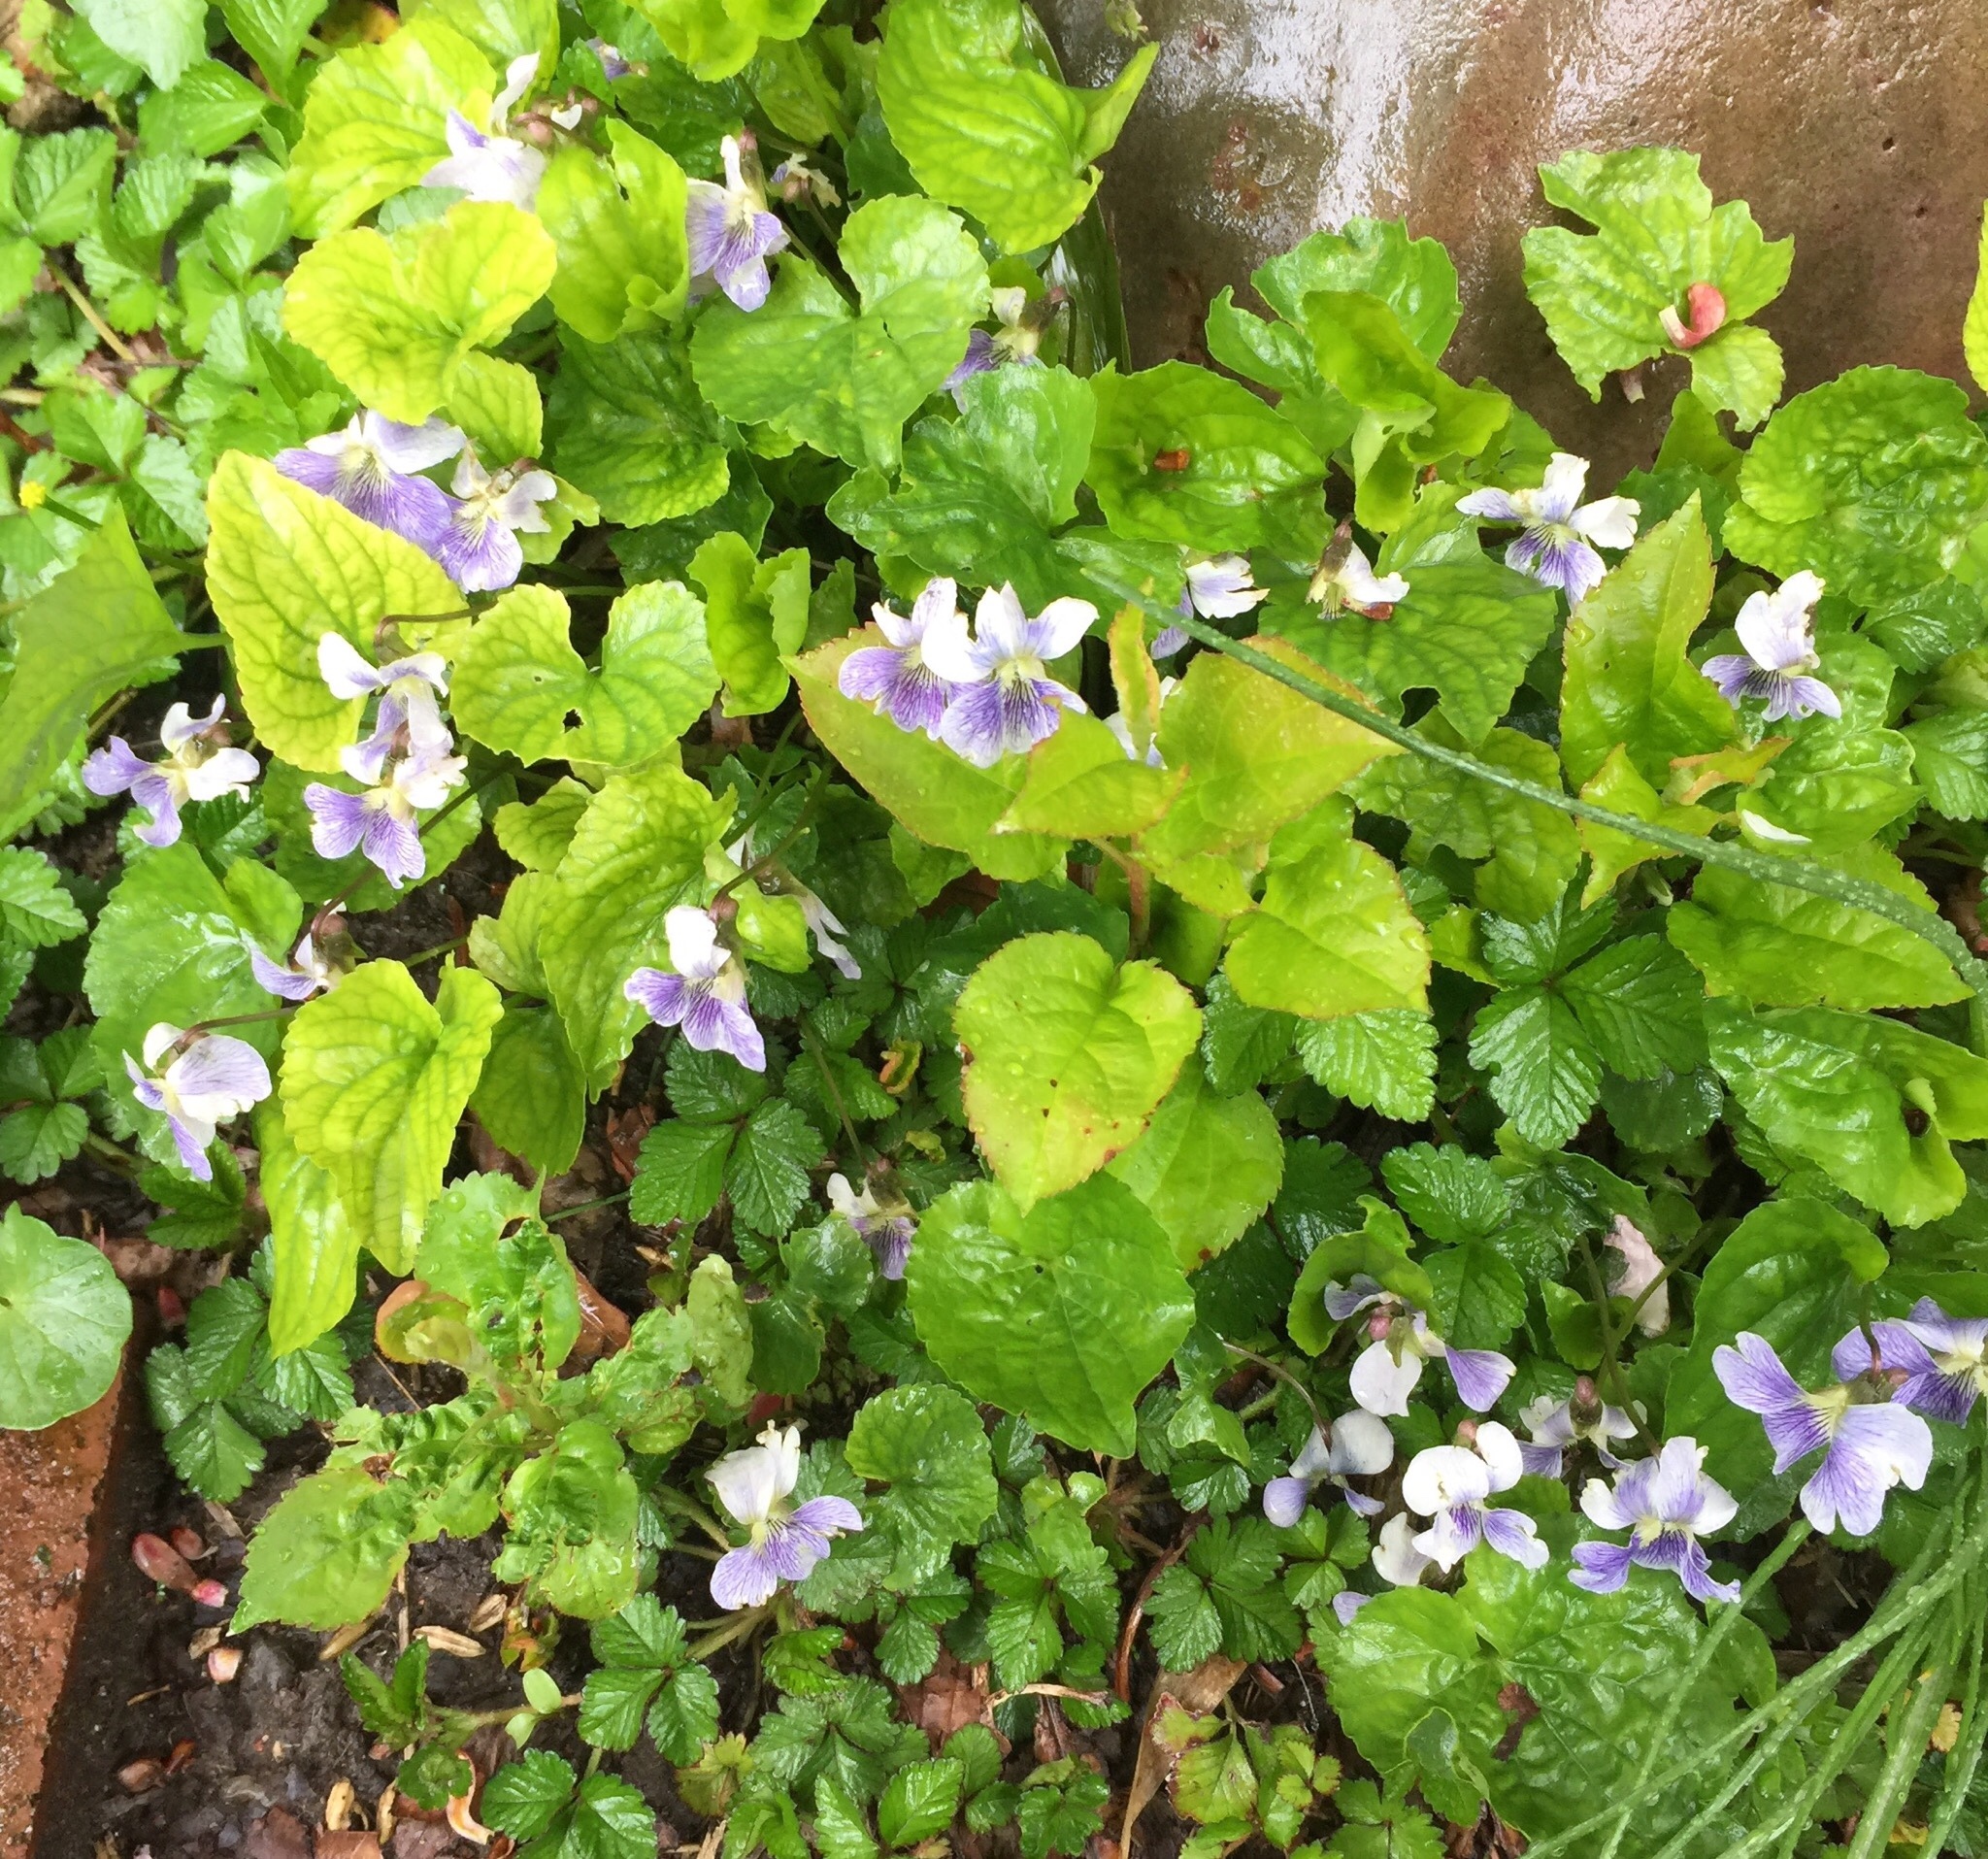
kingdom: Plantae
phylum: Tracheophyta
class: Magnoliopsida
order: Malpighiales
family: Violaceae
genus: Viola
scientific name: Viola sororia
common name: Dooryard violet
